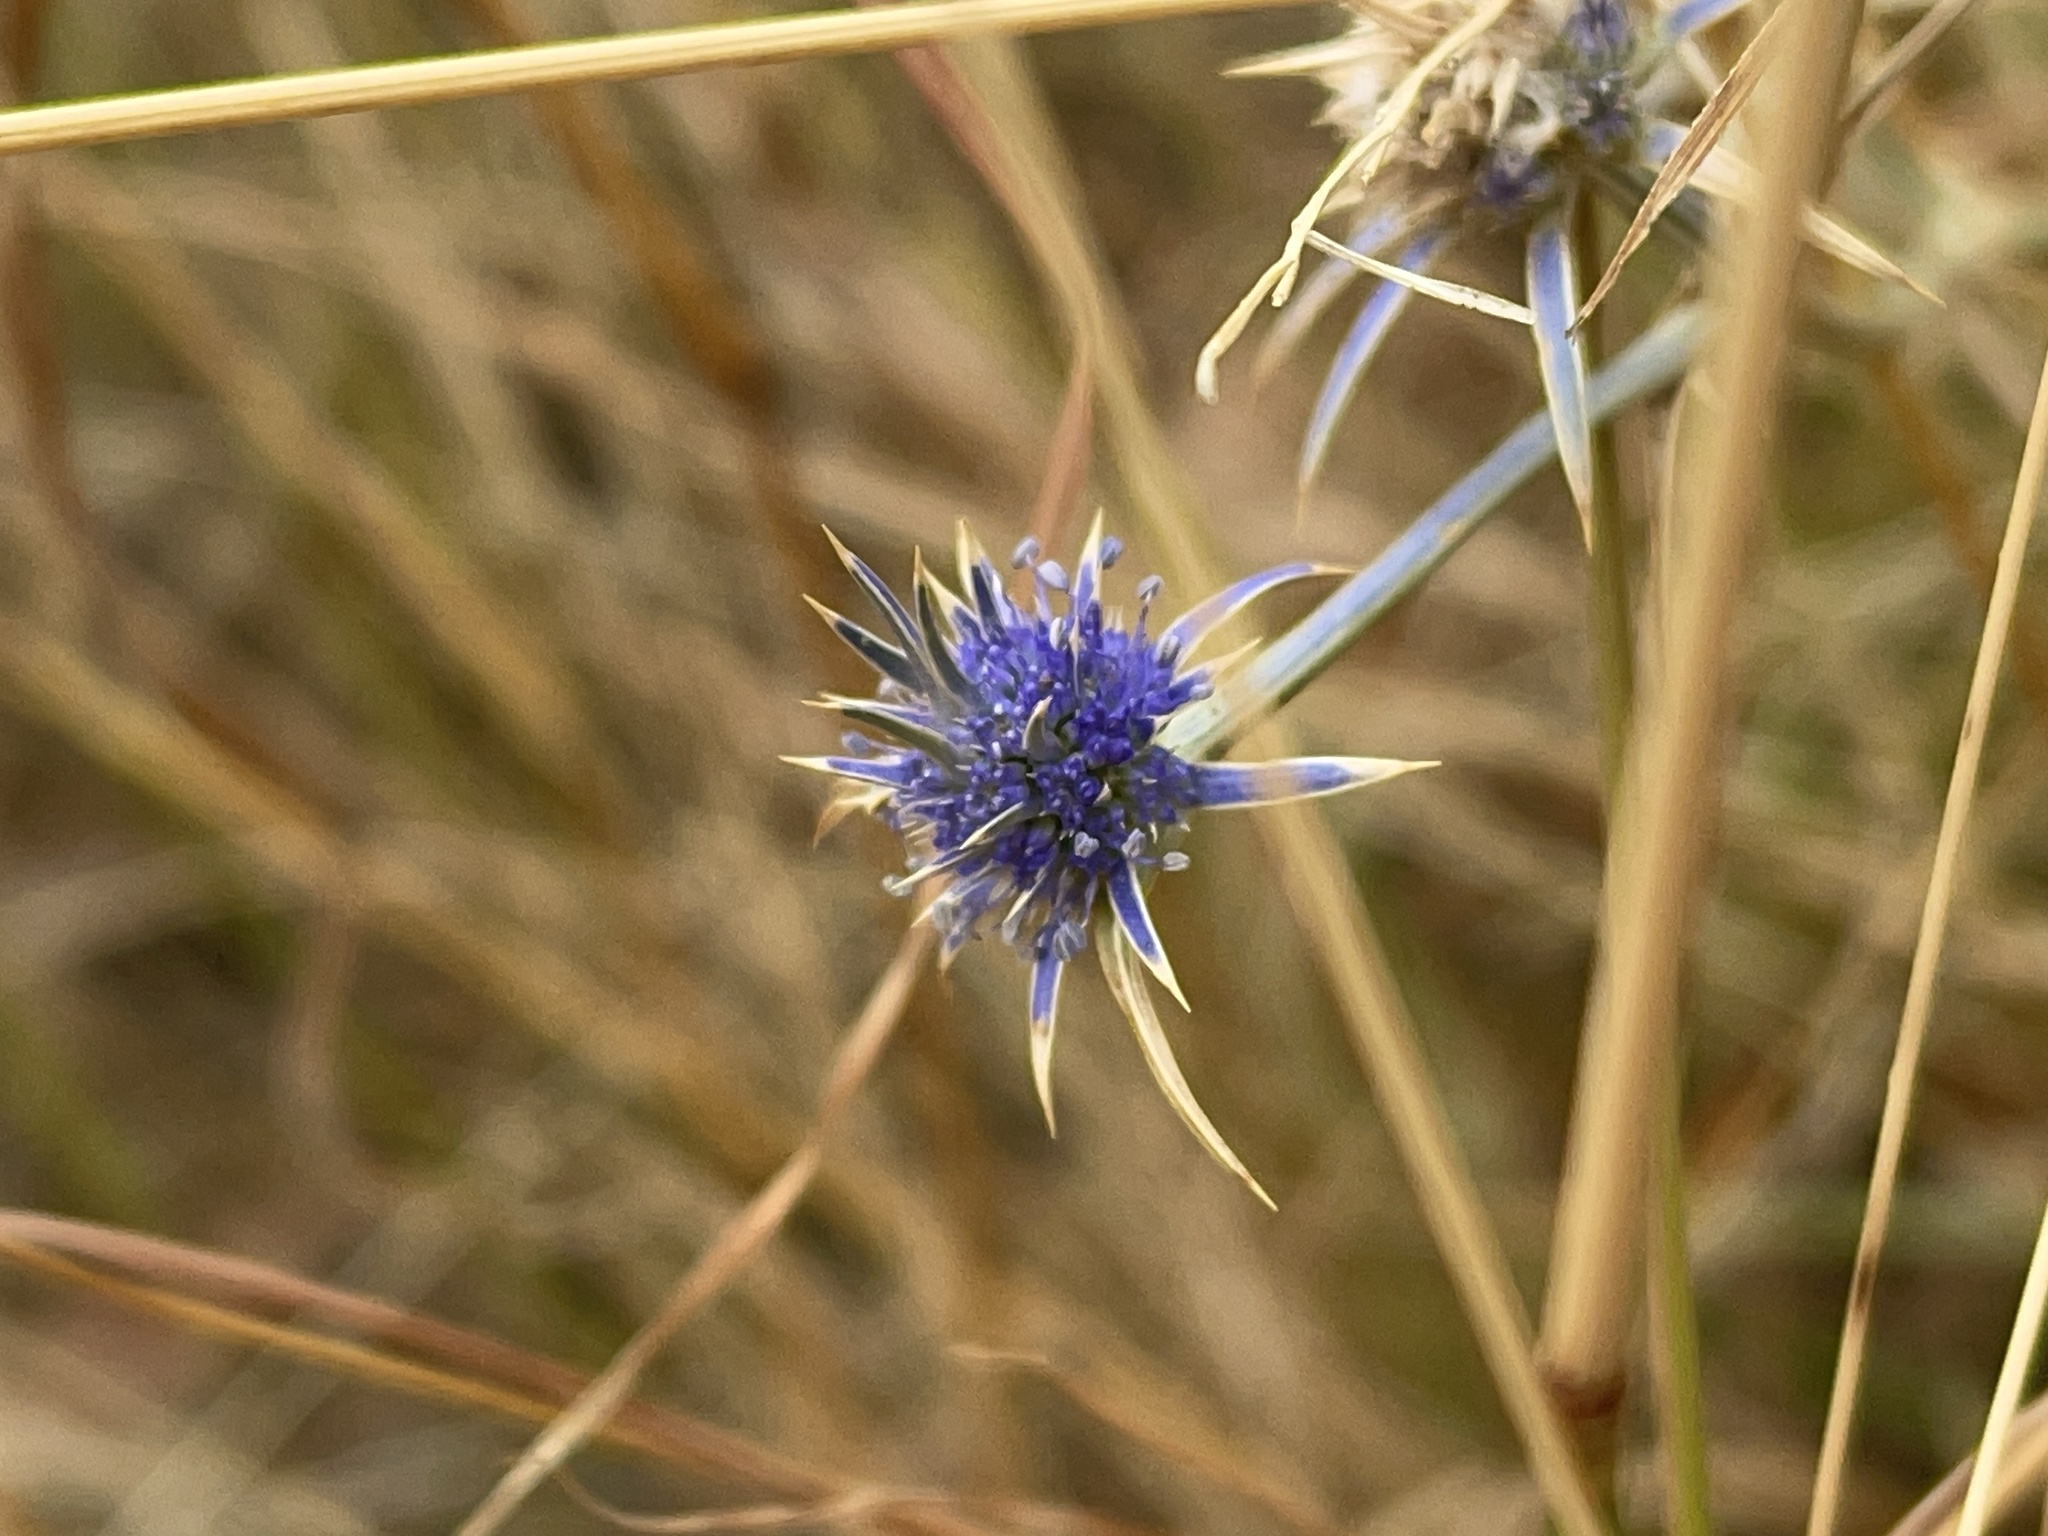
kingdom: Plantae
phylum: Tracheophyta
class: Magnoliopsida
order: Apiales
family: Apiaceae
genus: Eryngium
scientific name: Eryngium ovinum
